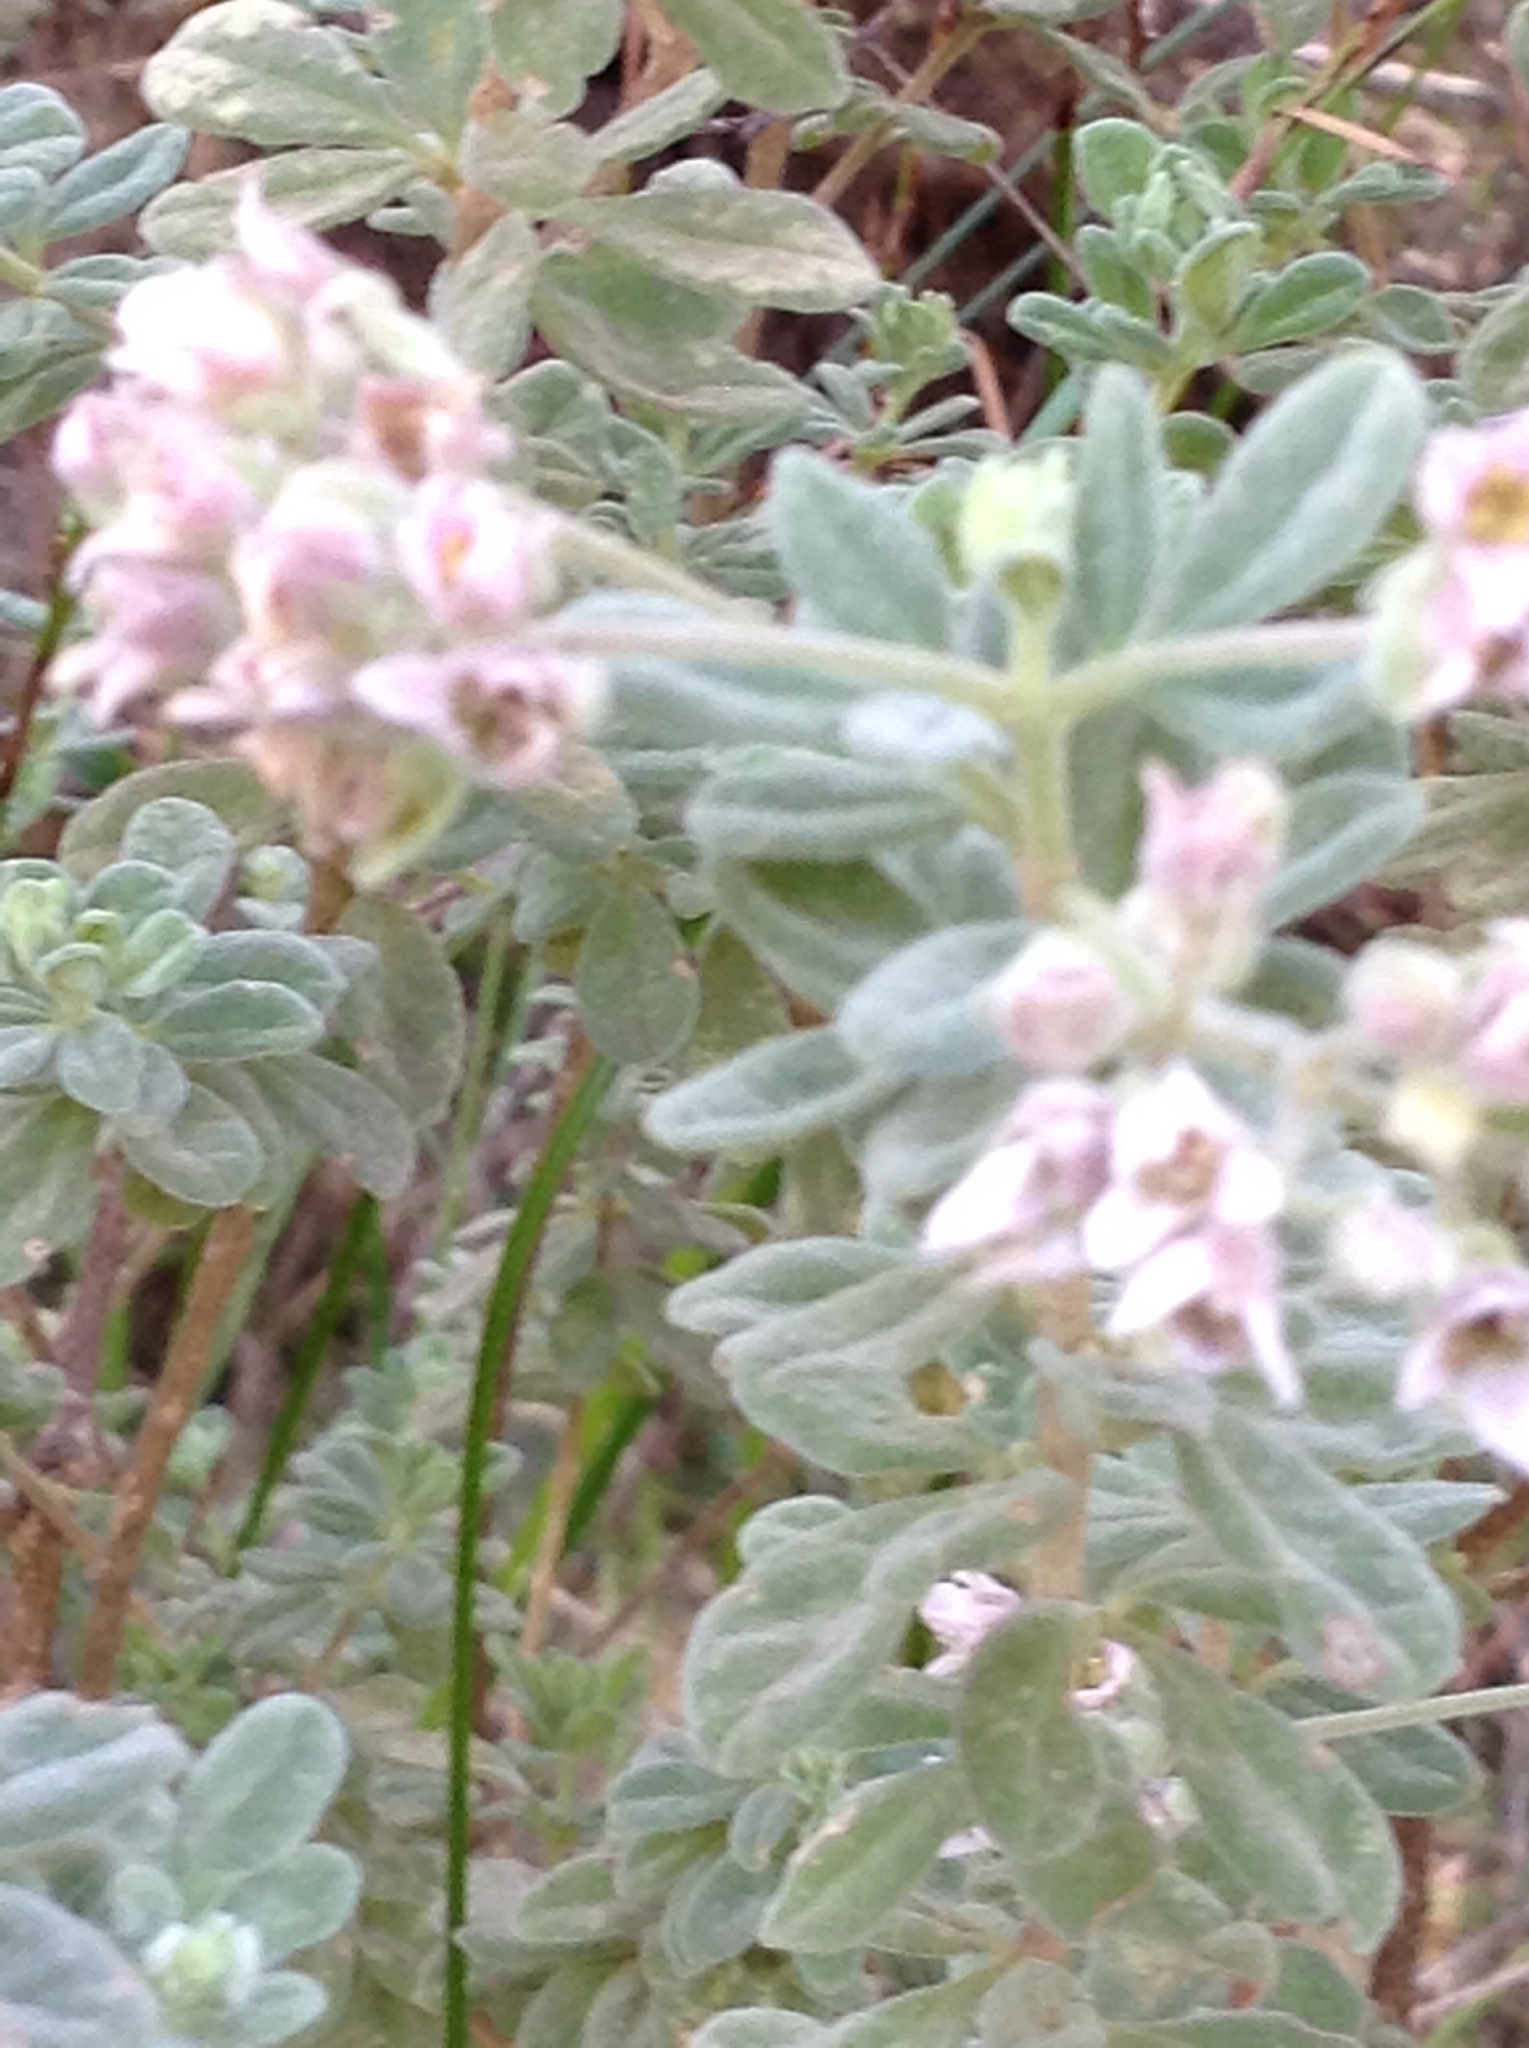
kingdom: Plantae
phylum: Tracheophyta
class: Magnoliopsida
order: Sapindales
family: Rutaceae
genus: Zieria
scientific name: Zieria littoralis
